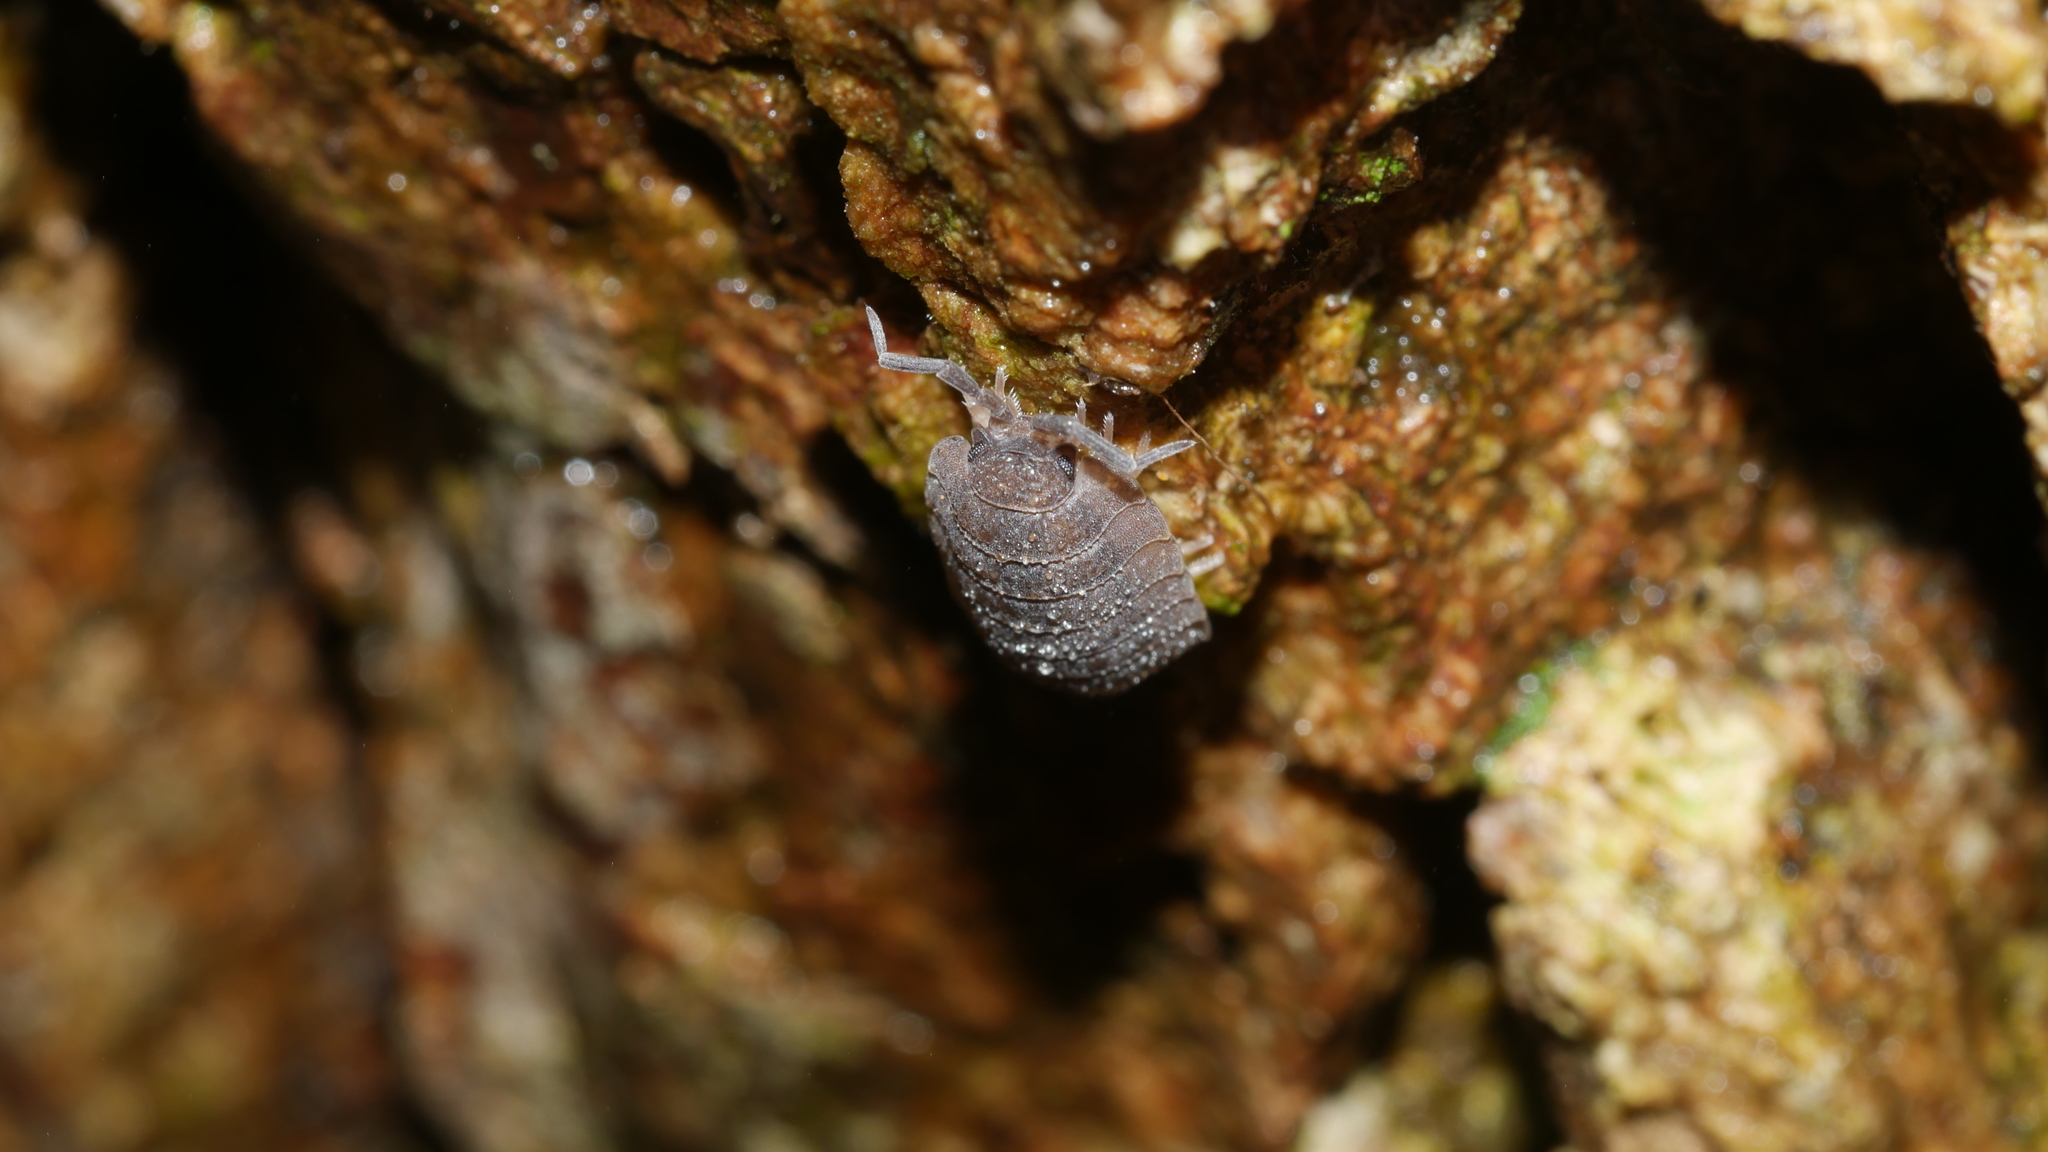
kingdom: Animalia
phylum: Arthropoda
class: Malacostraca
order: Isopoda
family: Porcellionidae
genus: Porcellio
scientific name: Porcellio scaber
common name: Common rough woodlouse
